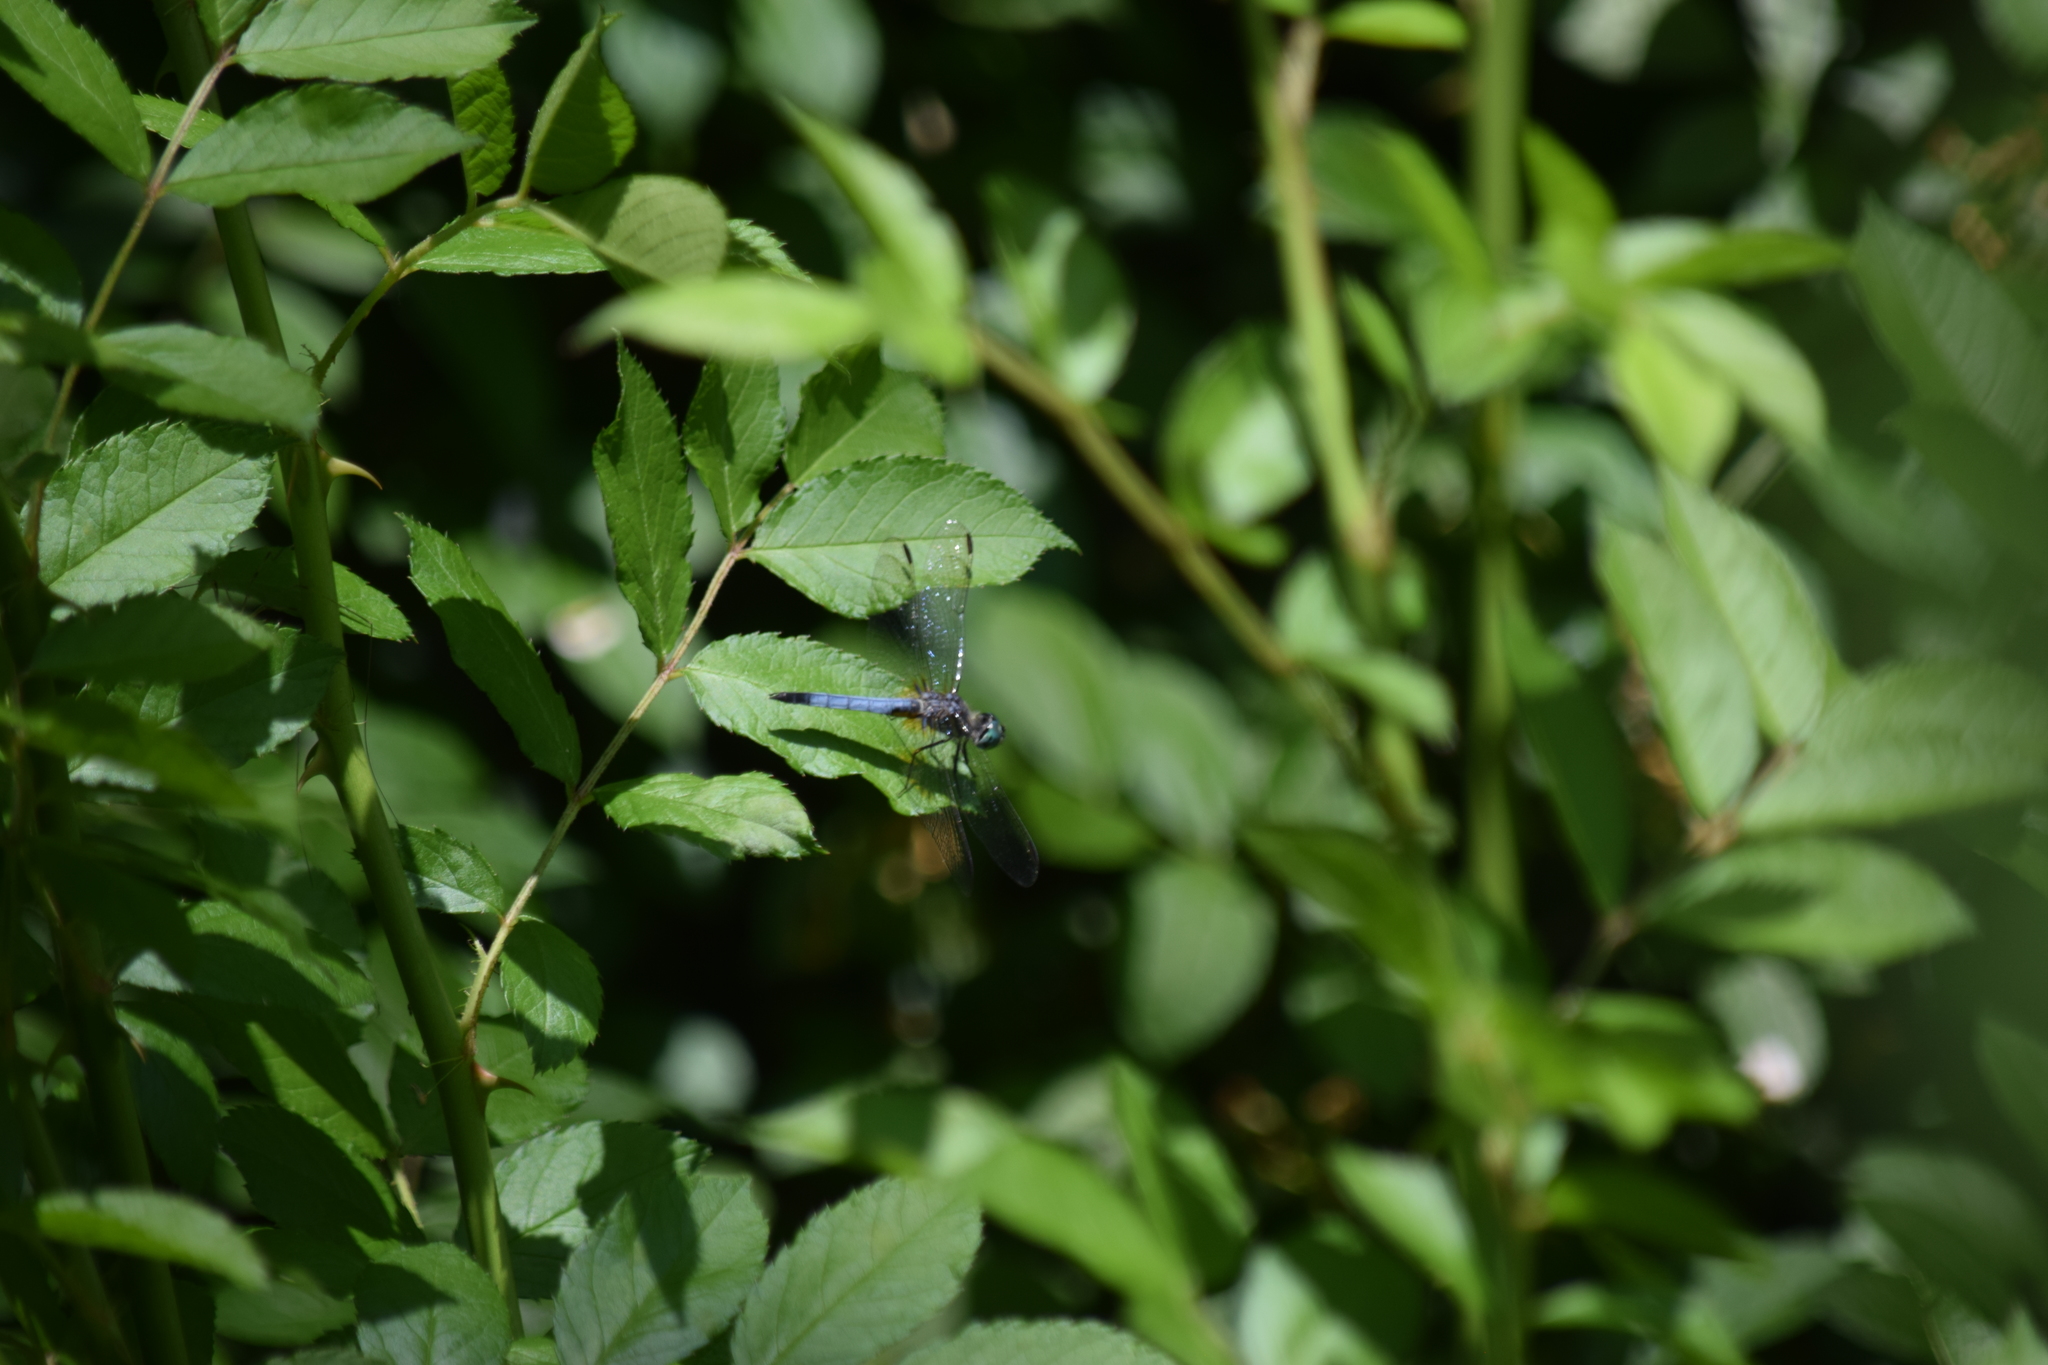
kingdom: Animalia
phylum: Arthropoda
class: Insecta
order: Odonata
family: Libellulidae
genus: Pachydiplax
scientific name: Pachydiplax longipennis
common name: Blue dasher
